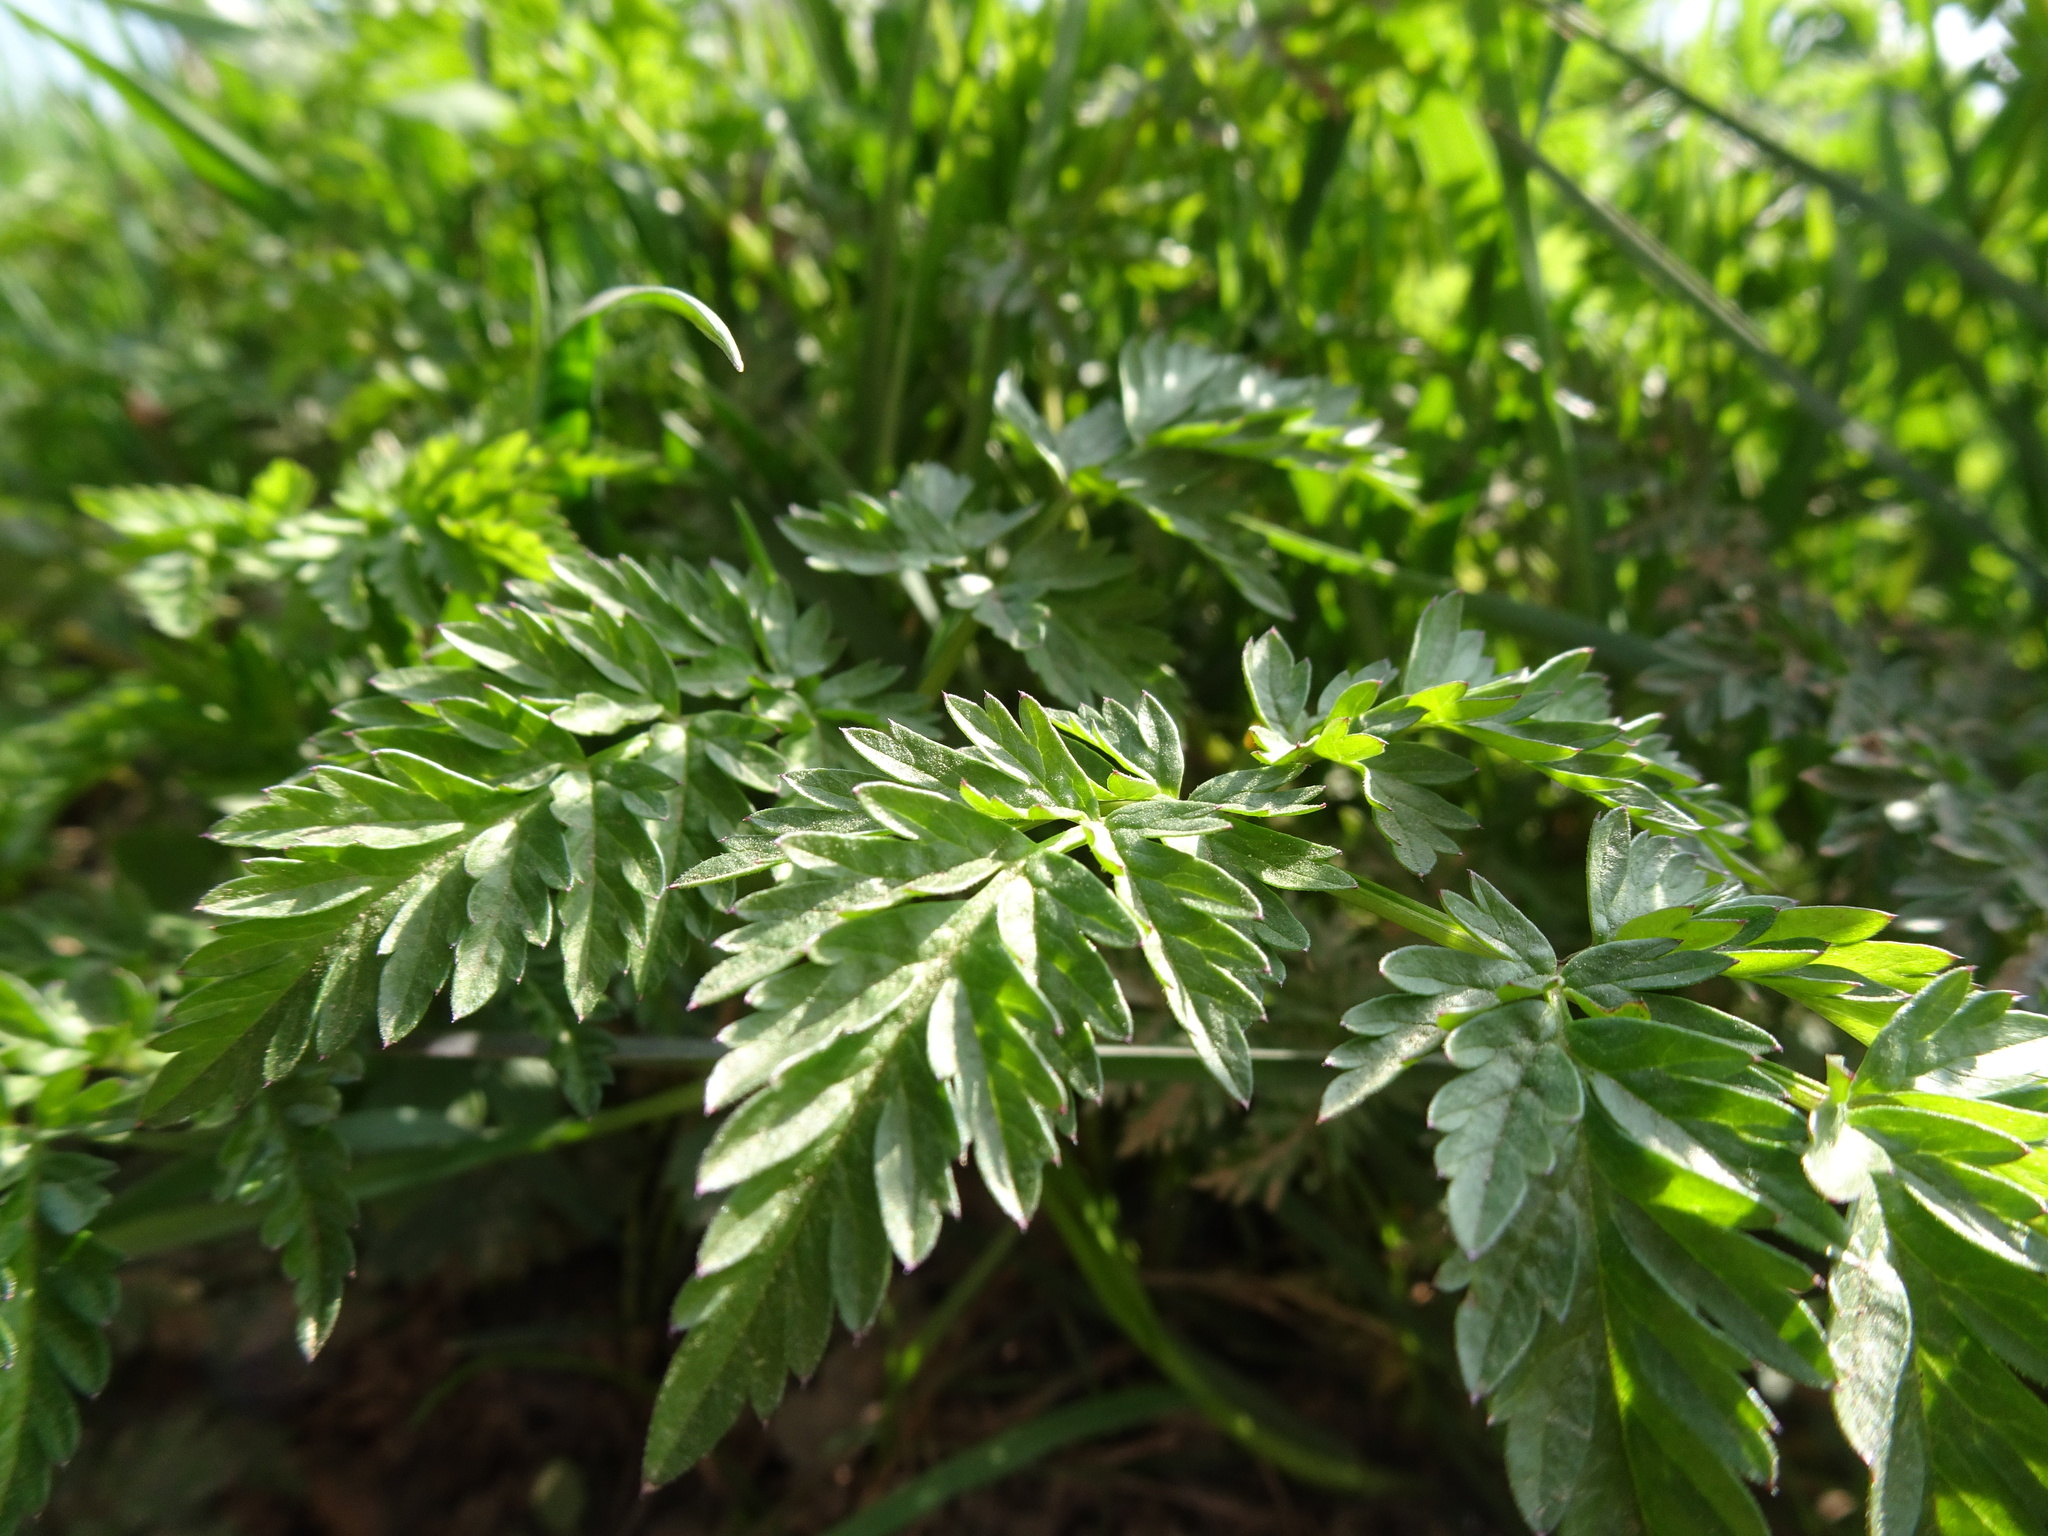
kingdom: Plantae
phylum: Tracheophyta
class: Magnoliopsida
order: Apiales
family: Apiaceae
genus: Anthriscus
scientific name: Anthriscus sylvestris
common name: Cow parsley
